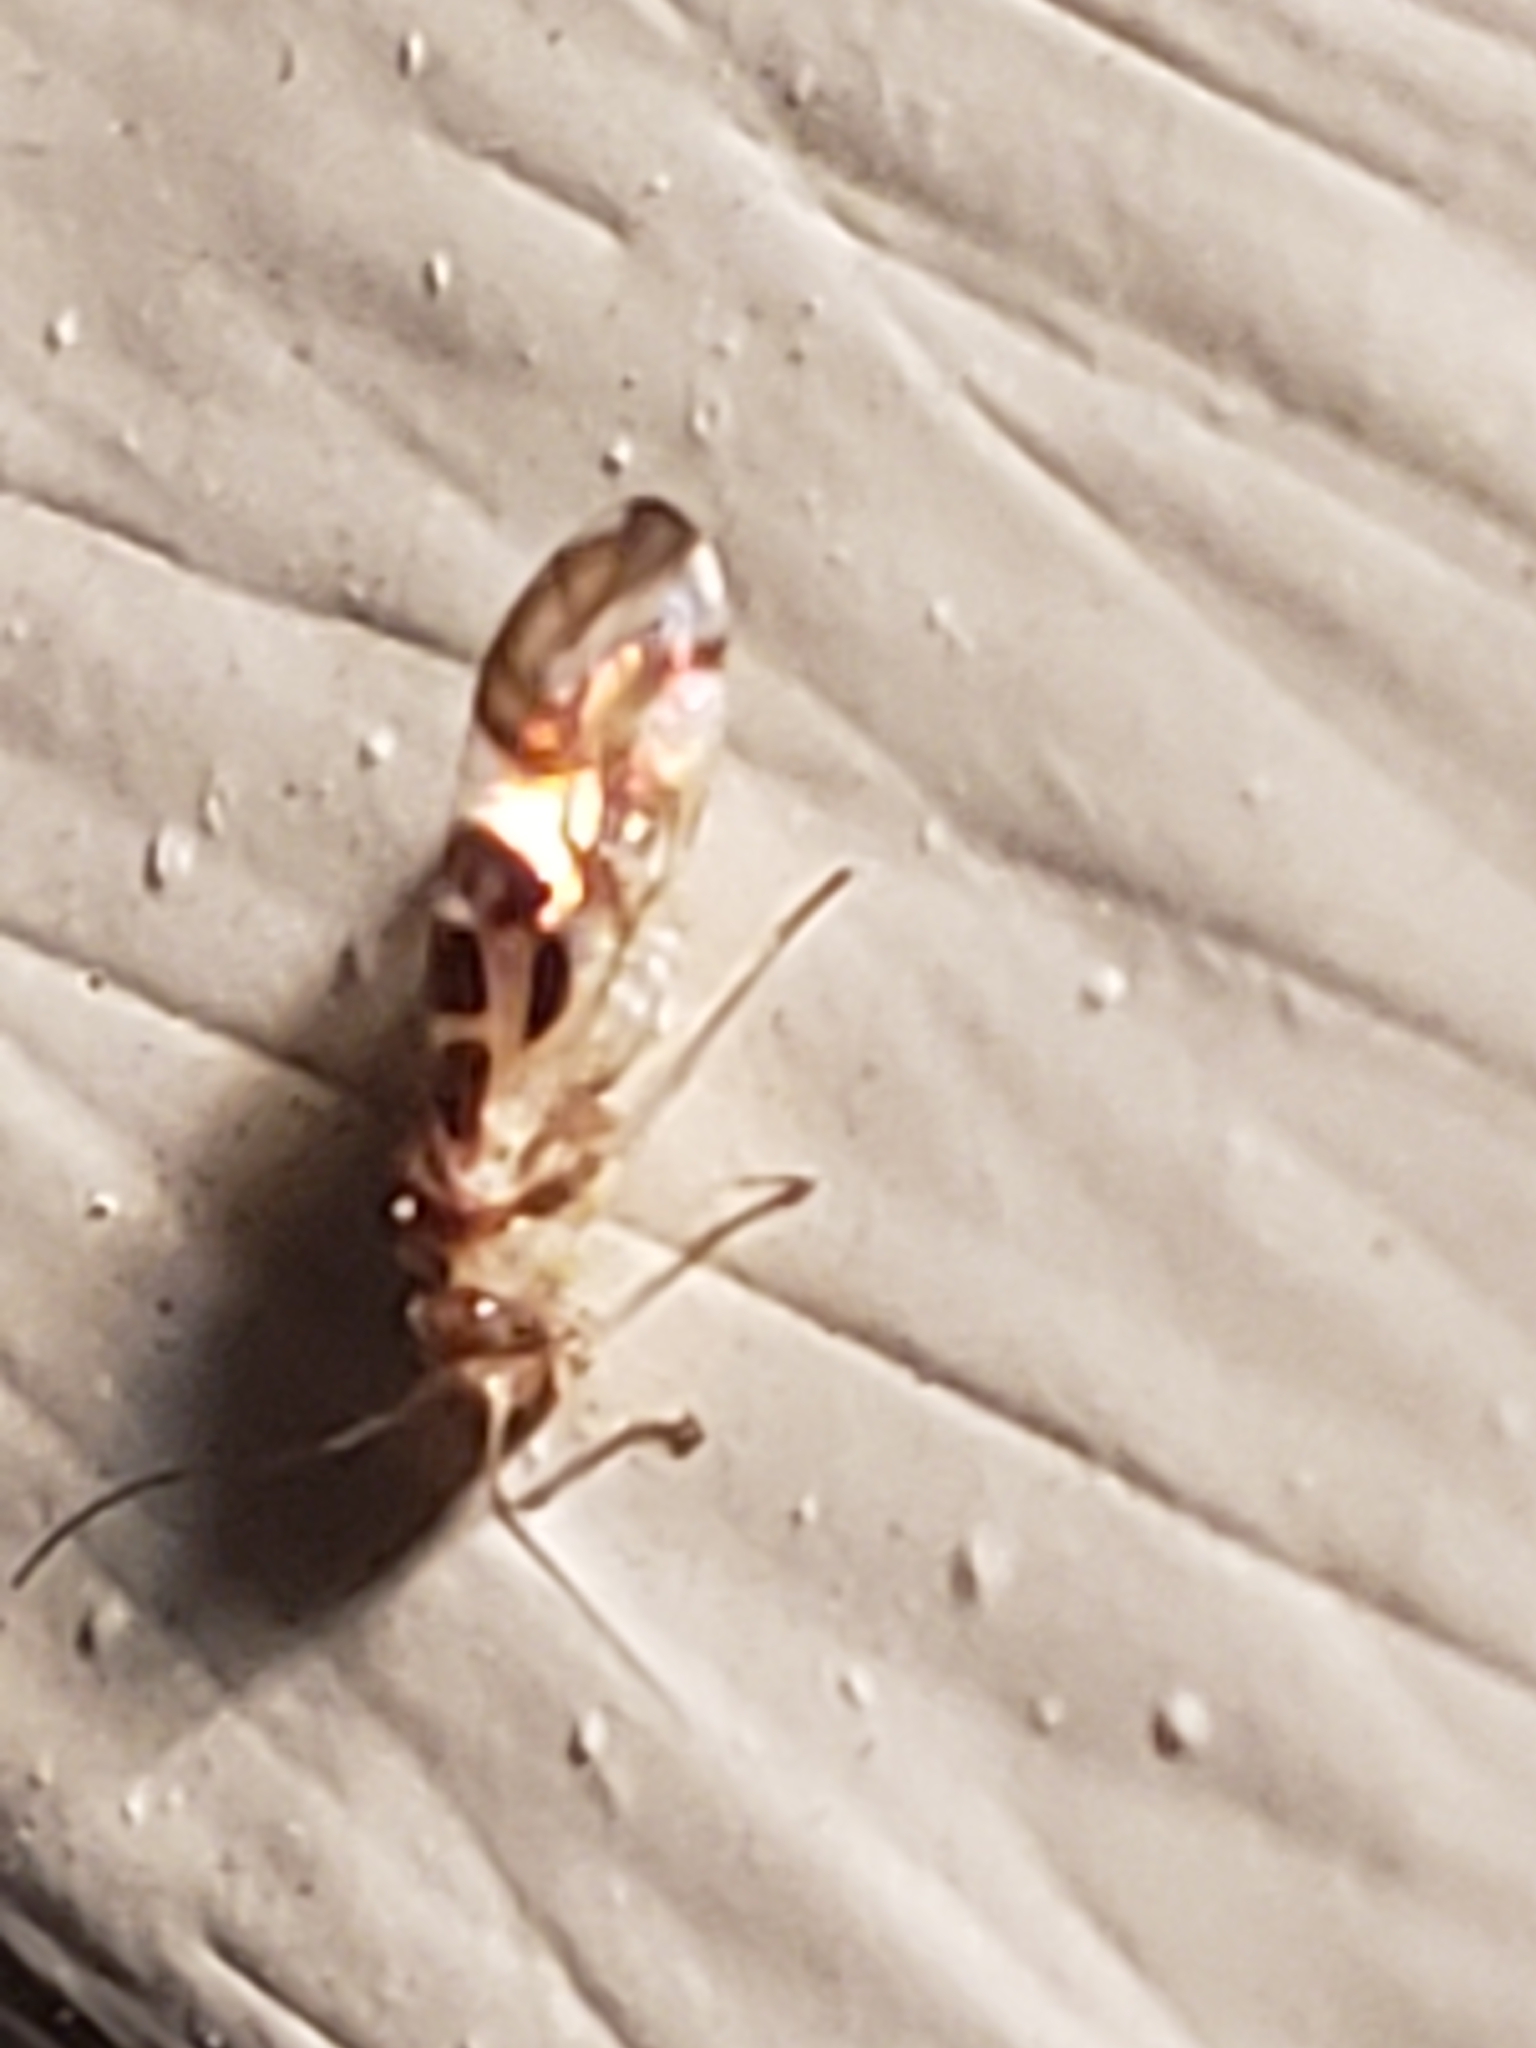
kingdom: Animalia
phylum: Arthropoda
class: Insecta
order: Psocodea
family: Stenopsocidae
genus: Graphopsocus
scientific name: Graphopsocus cruciatus
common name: Lizard bark louse
